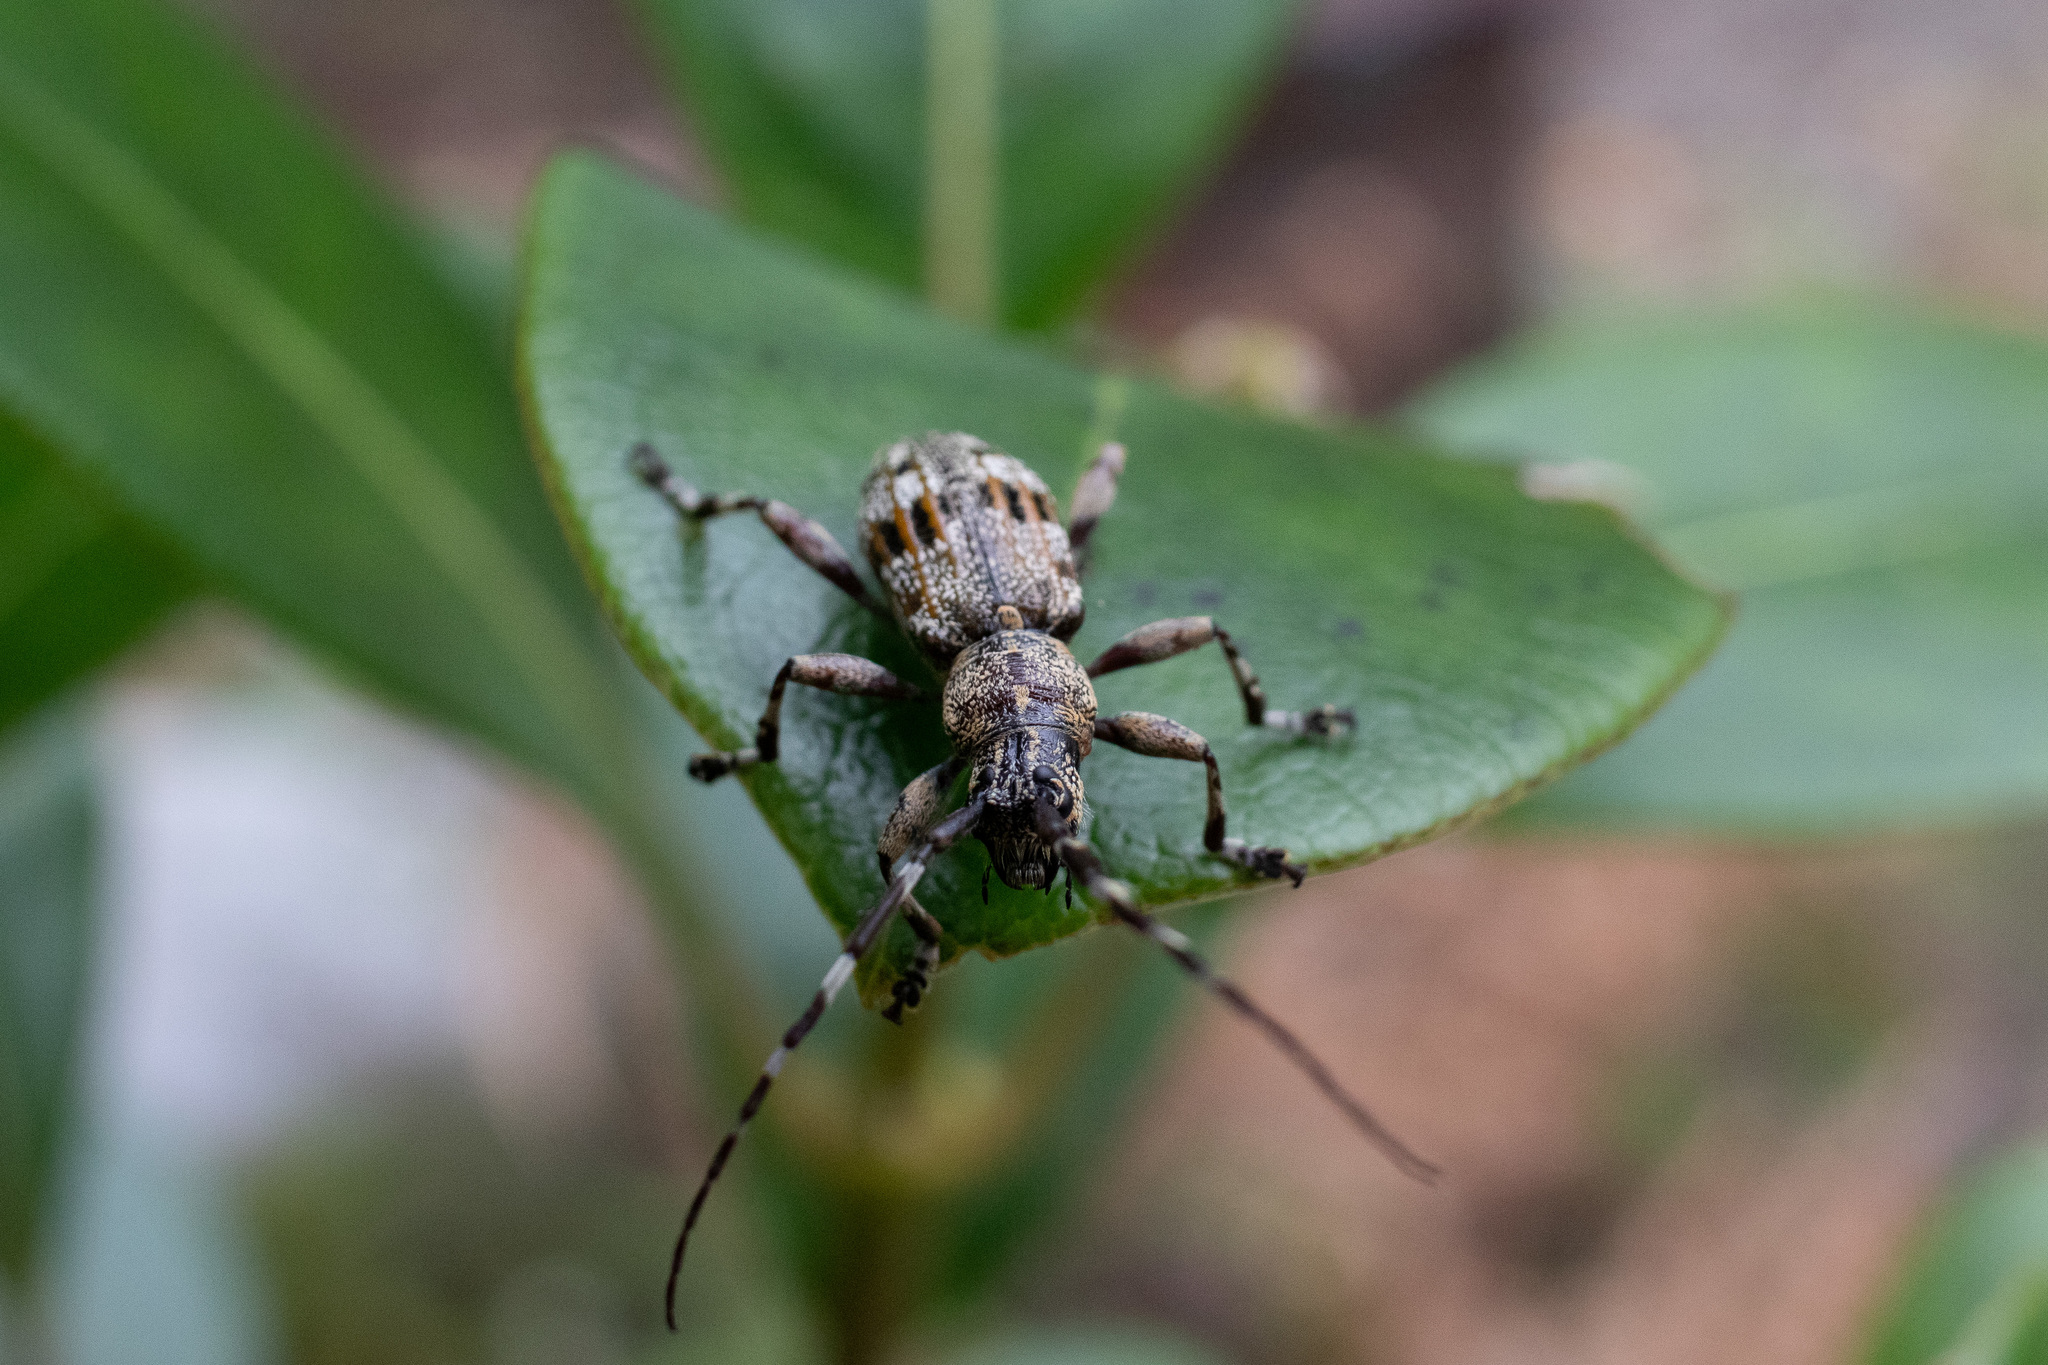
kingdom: Animalia
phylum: Arthropoda
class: Insecta
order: Coleoptera
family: Cerambycidae
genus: Hexatricha
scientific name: Hexatricha pulverulenta
